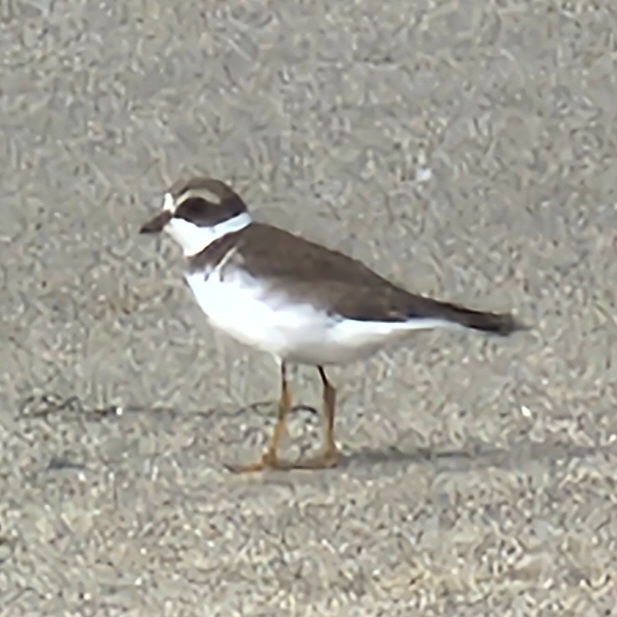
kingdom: Animalia
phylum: Chordata
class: Aves
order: Charadriiformes
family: Charadriidae
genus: Charadrius
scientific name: Charadrius semipalmatus
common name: Semipalmated plover
